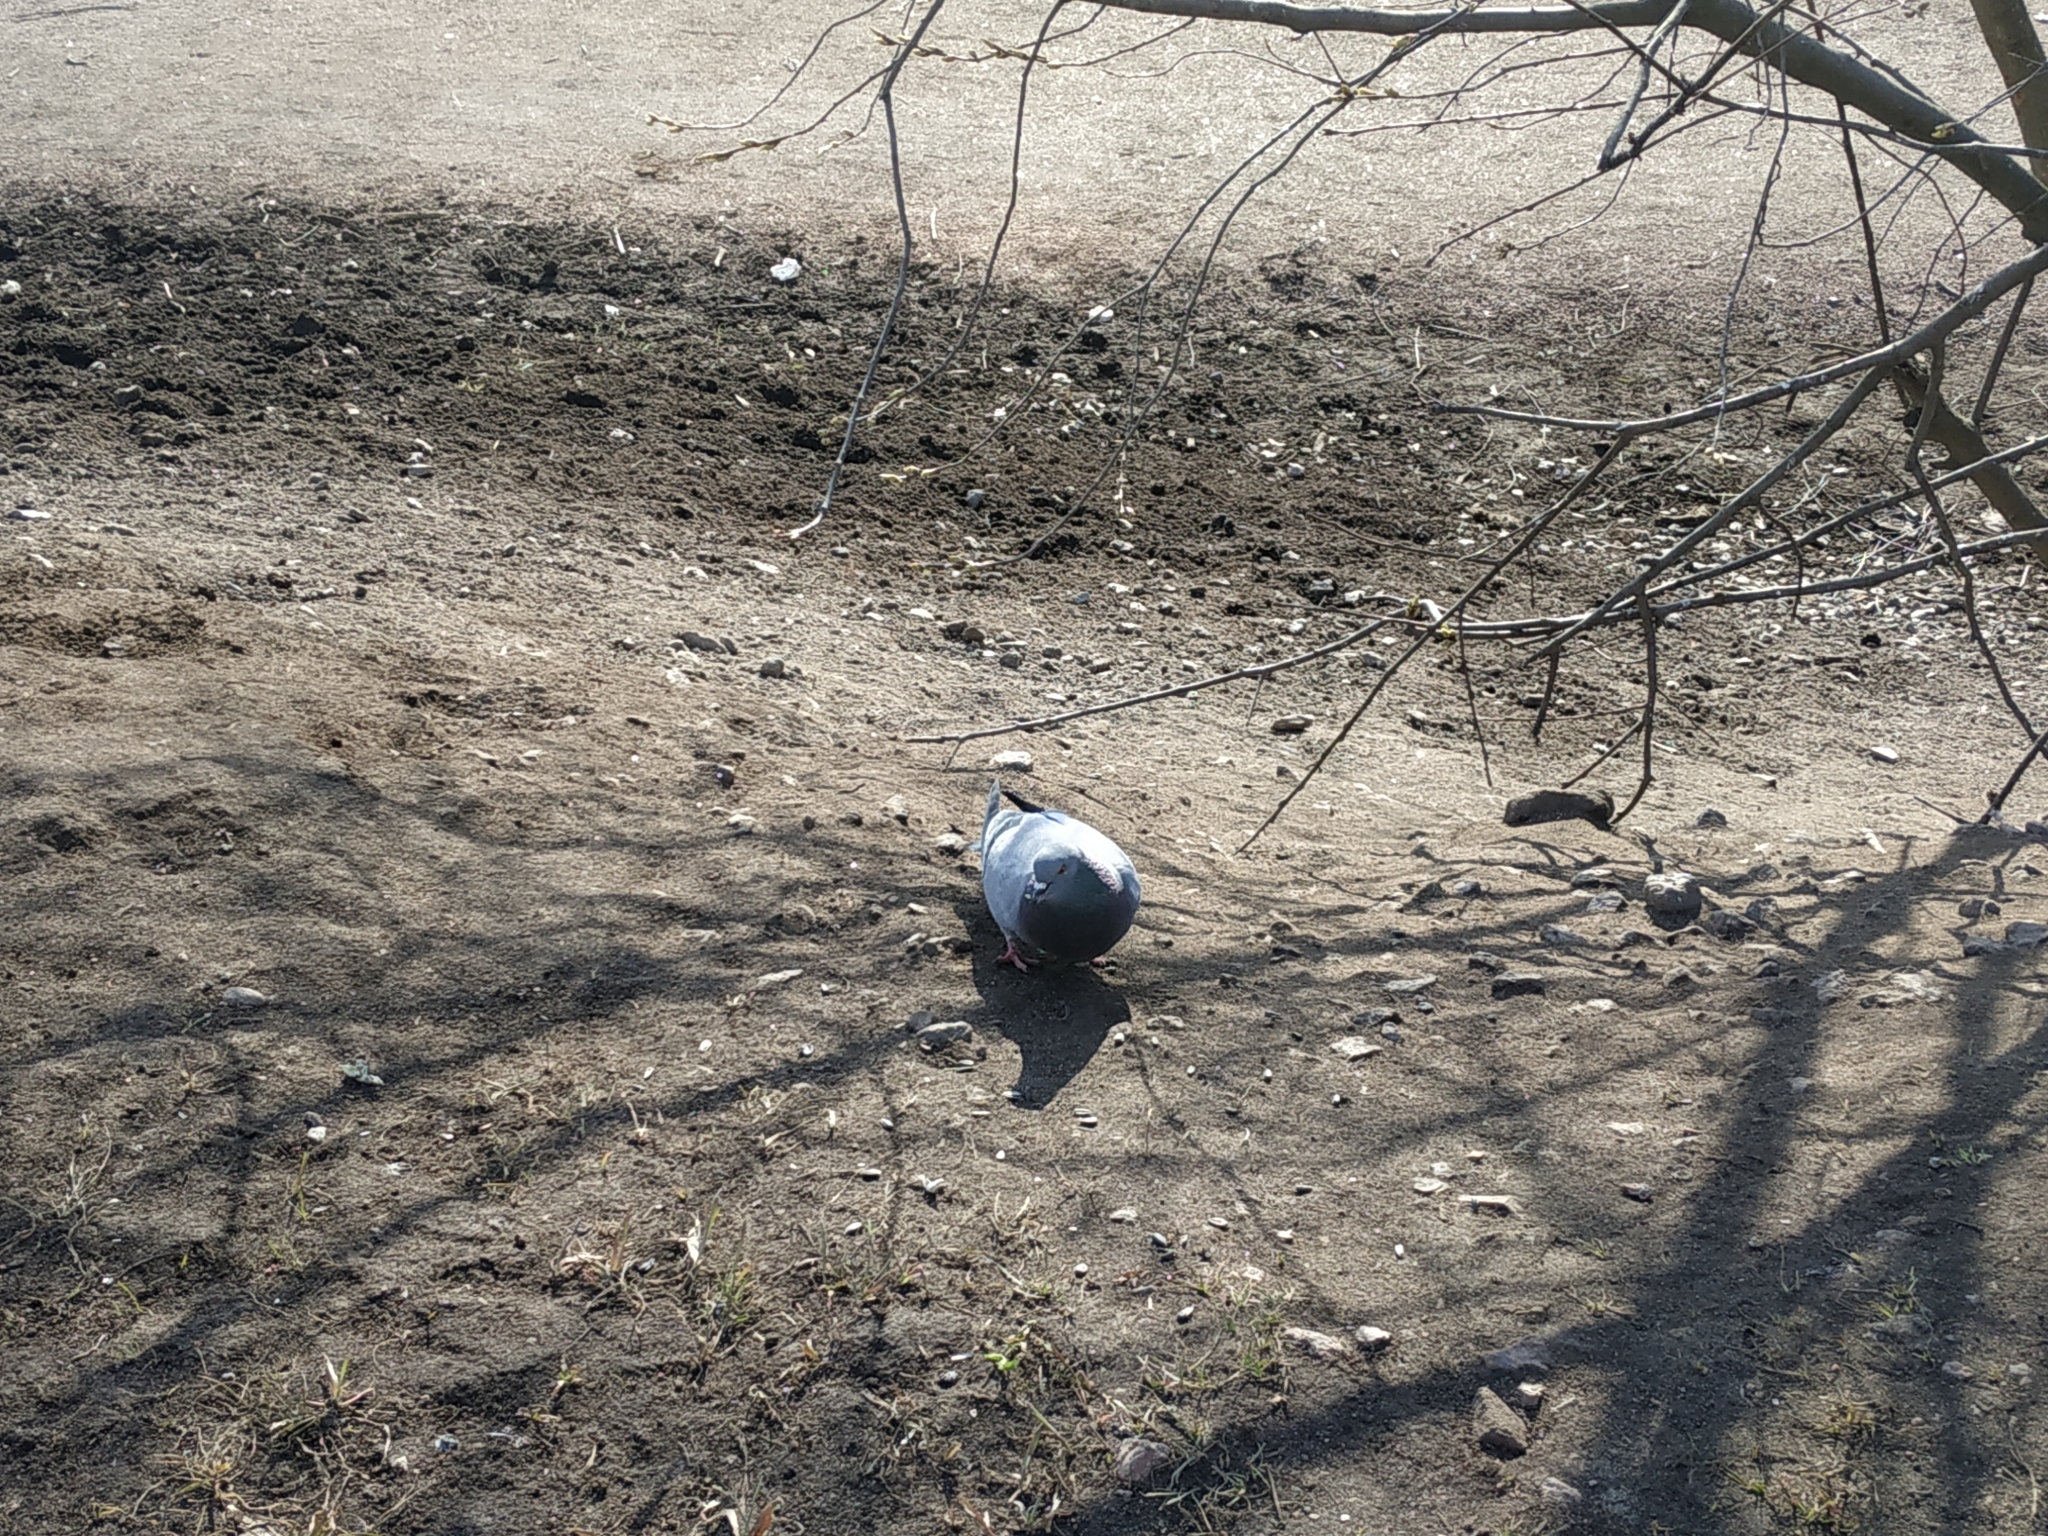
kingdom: Animalia
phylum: Chordata
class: Aves
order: Columbiformes
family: Columbidae
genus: Columba
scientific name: Columba livia
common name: Rock pigeon
